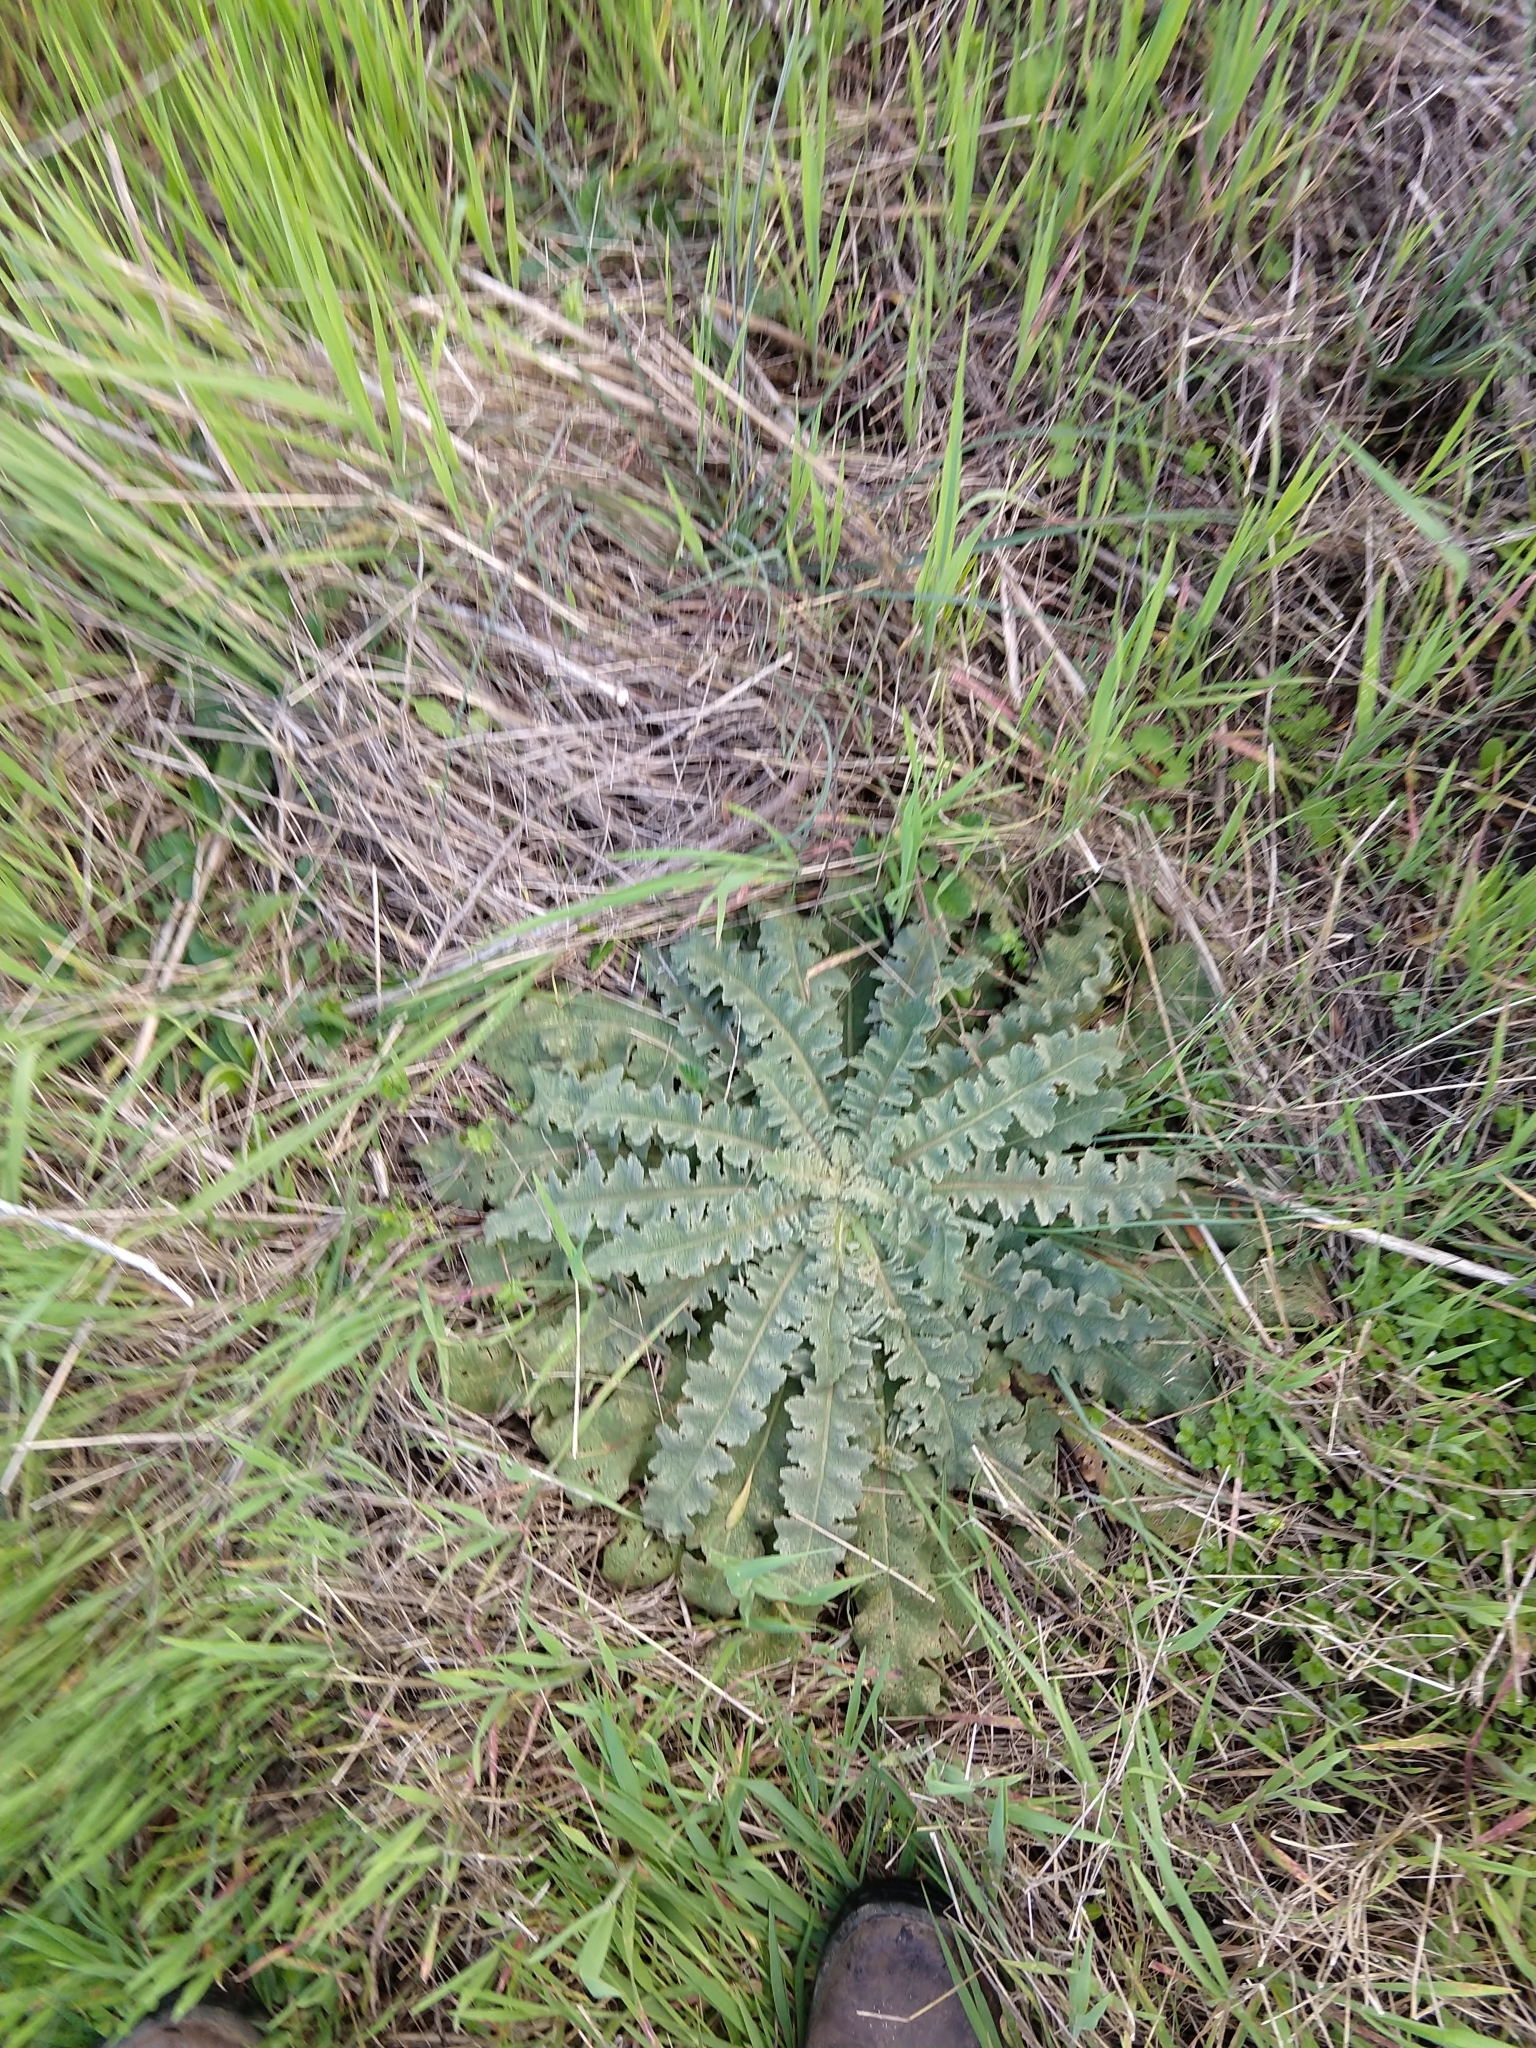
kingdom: Plantae
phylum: Tracheophyta
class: Magnoliopsida
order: Lamiales
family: Scrophulariaceae
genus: Verbascum
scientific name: Verbascum sinuatum
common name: Wavyleaf mullein
